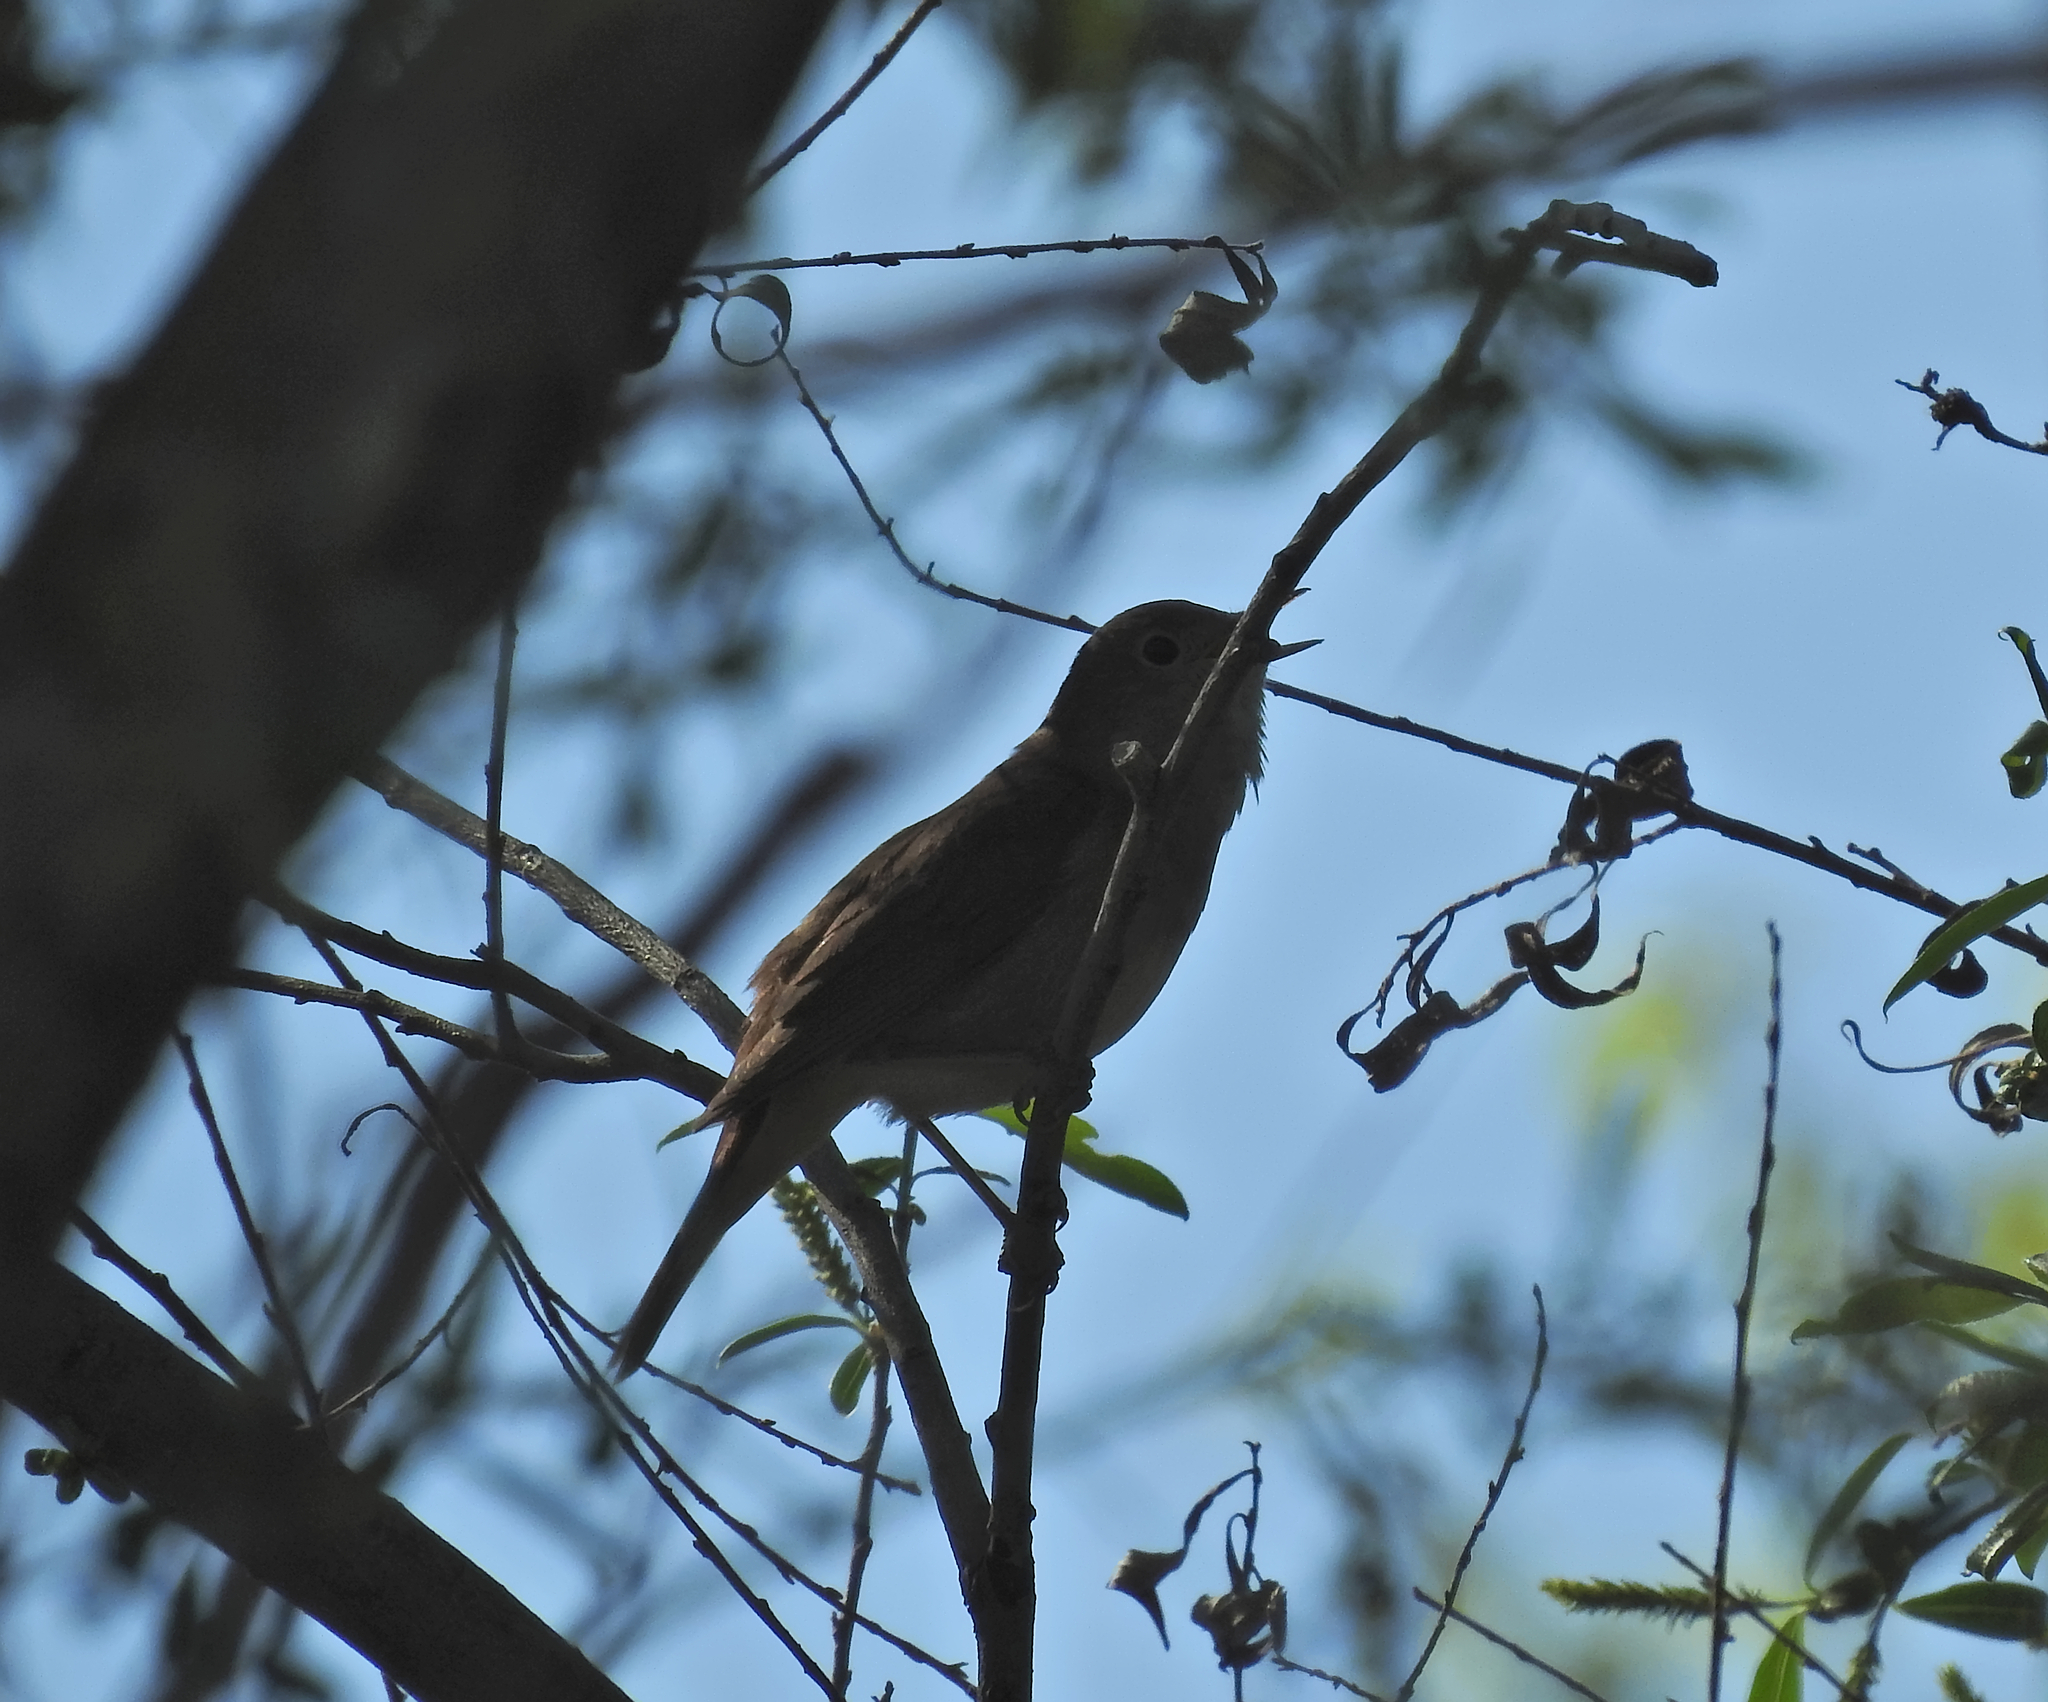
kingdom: Animalia
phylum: Chordata
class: Aves
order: Passeriformes
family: Muscicapidae
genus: Luscinia
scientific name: Luscinia megarhynchos
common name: Common nightingale
